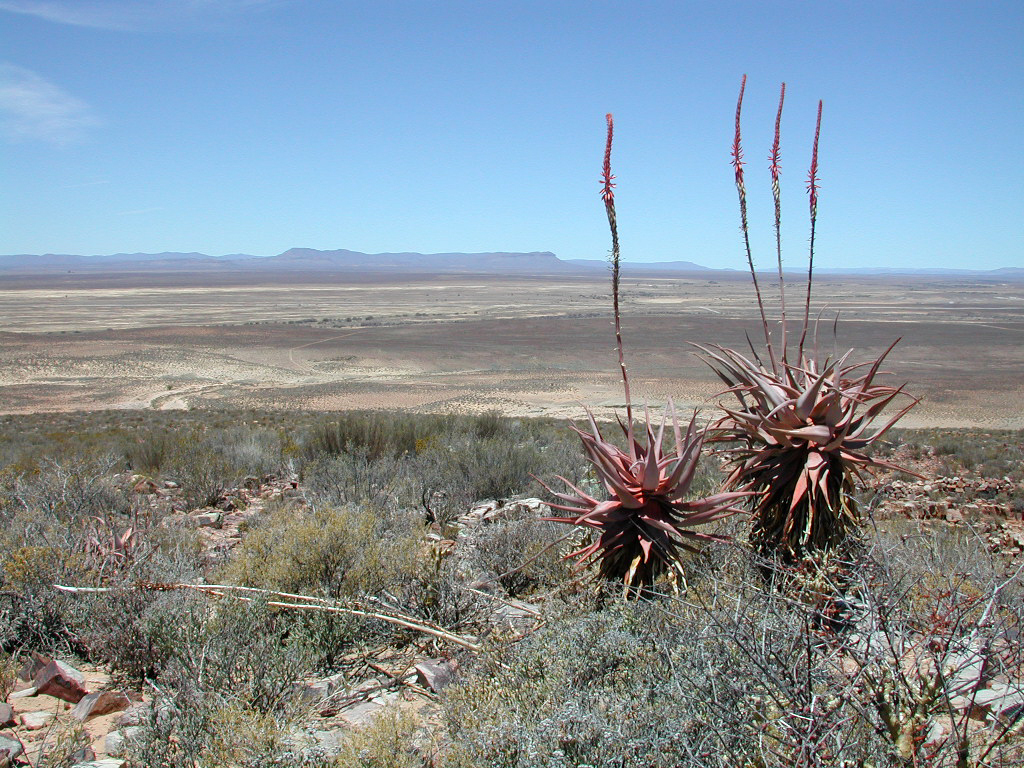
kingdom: Plantae
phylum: Tracheophyta
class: Liliopsida
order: Asparagales
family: Asphodelaceae
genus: Aloe
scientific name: Aloe comosa
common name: Clanwilliam aloe
